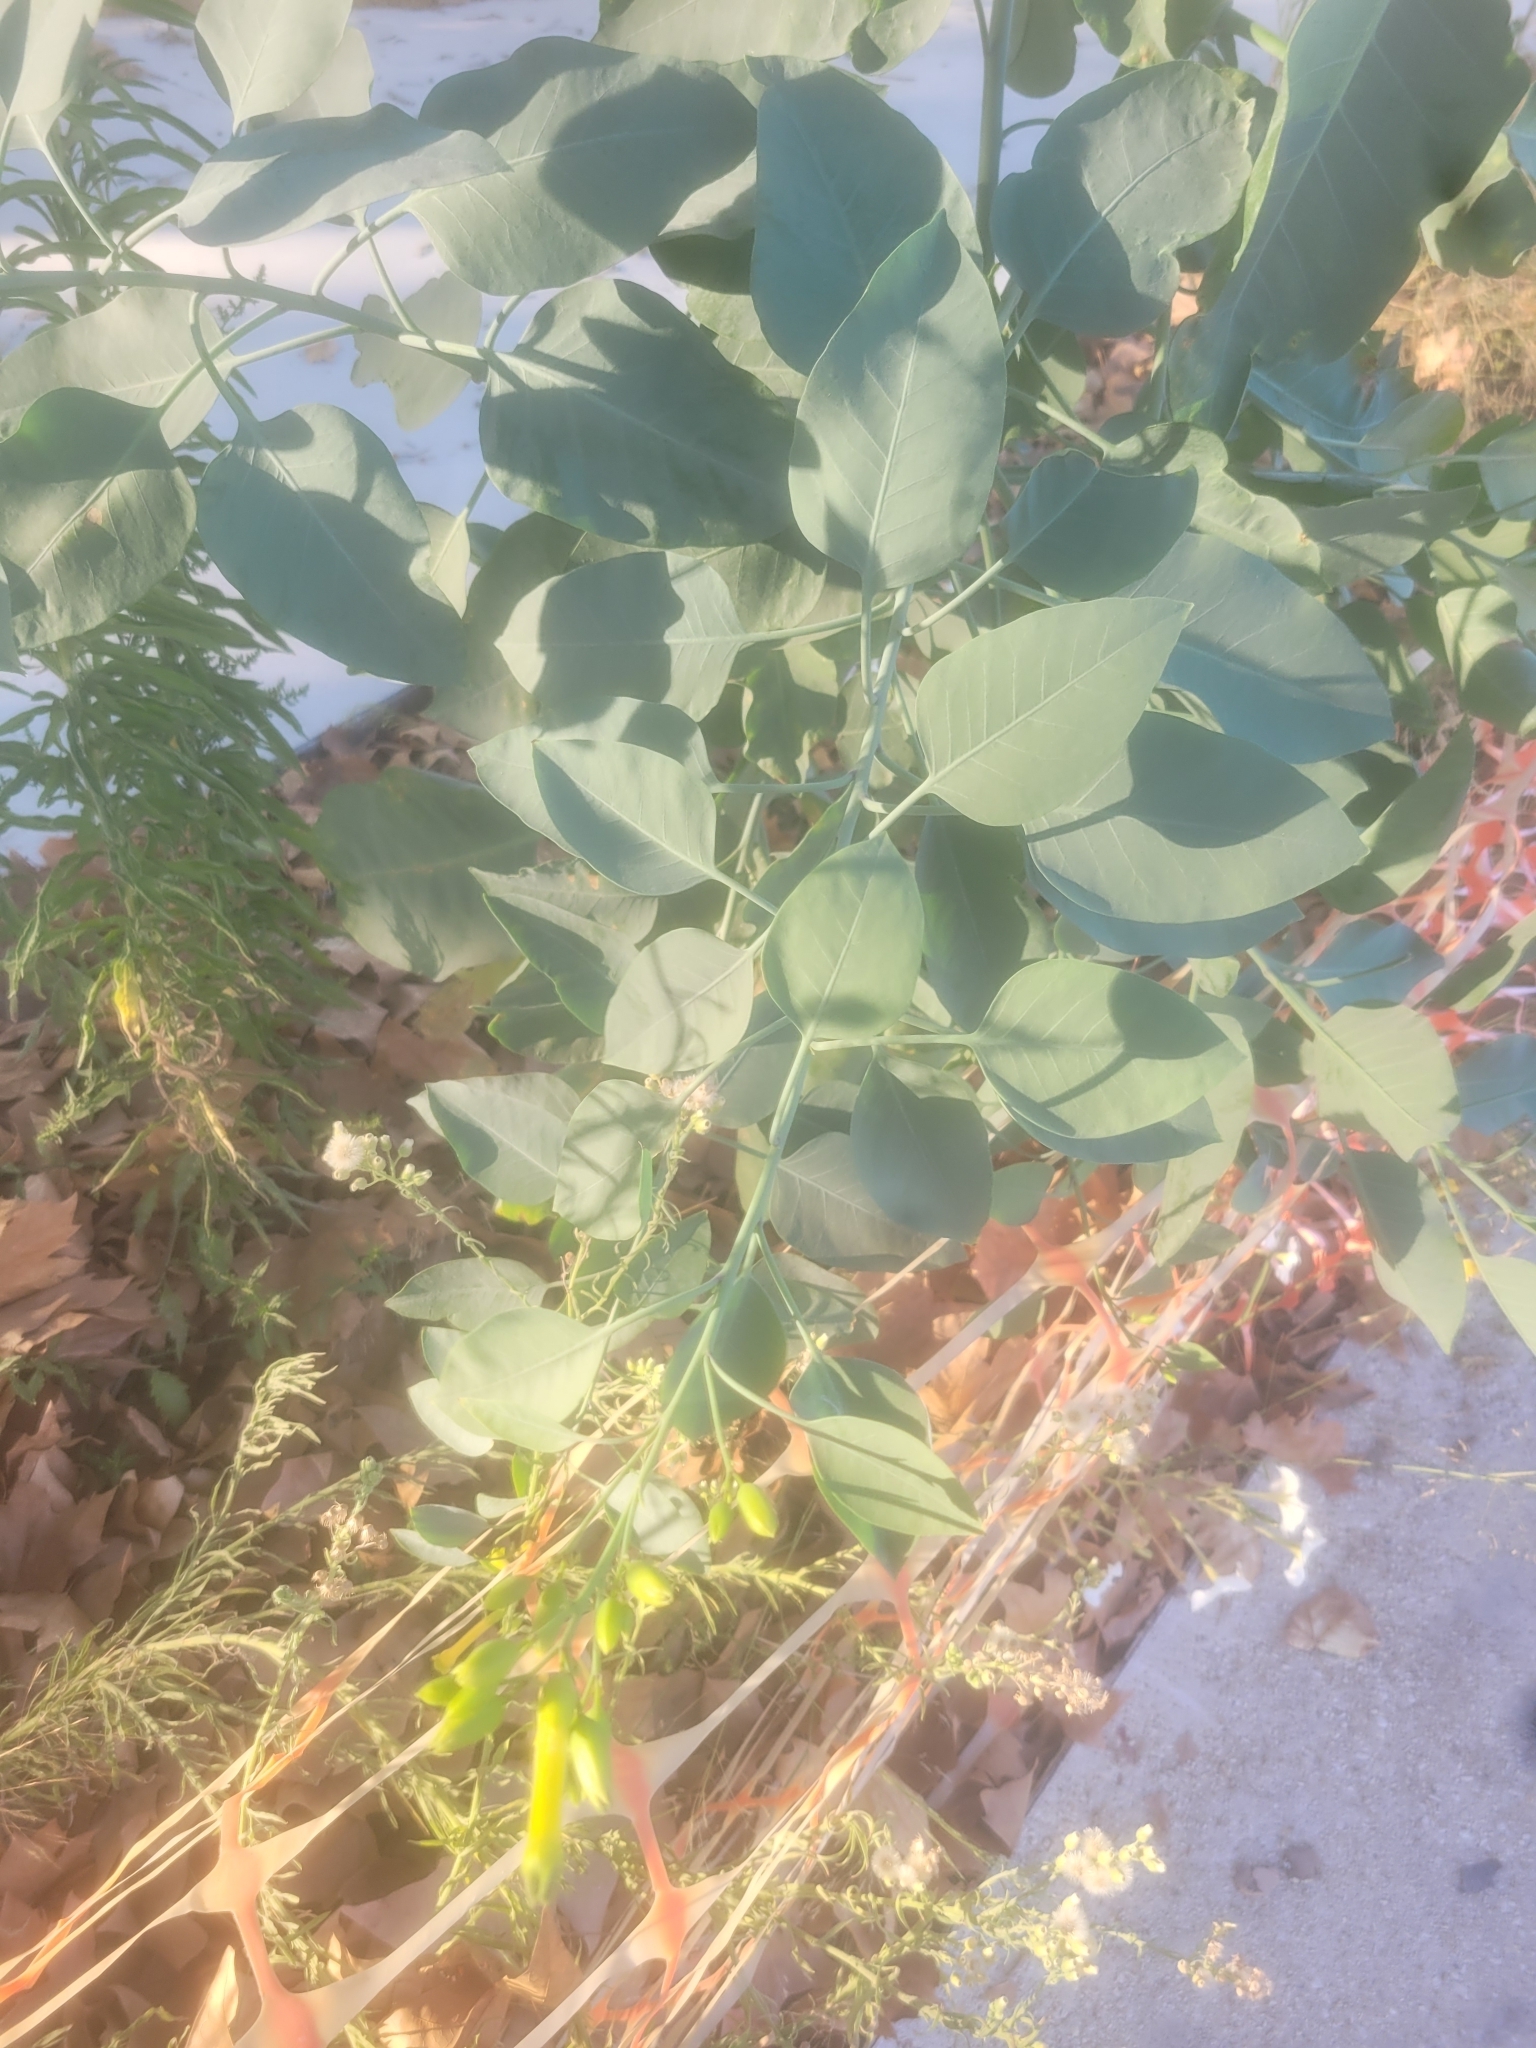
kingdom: Plantae
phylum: Tracheophyta
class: Magnoliopsida
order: Solanales
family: Solanaceae
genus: Nicotiana
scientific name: Nicotiana glauca
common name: Tree tobacco
